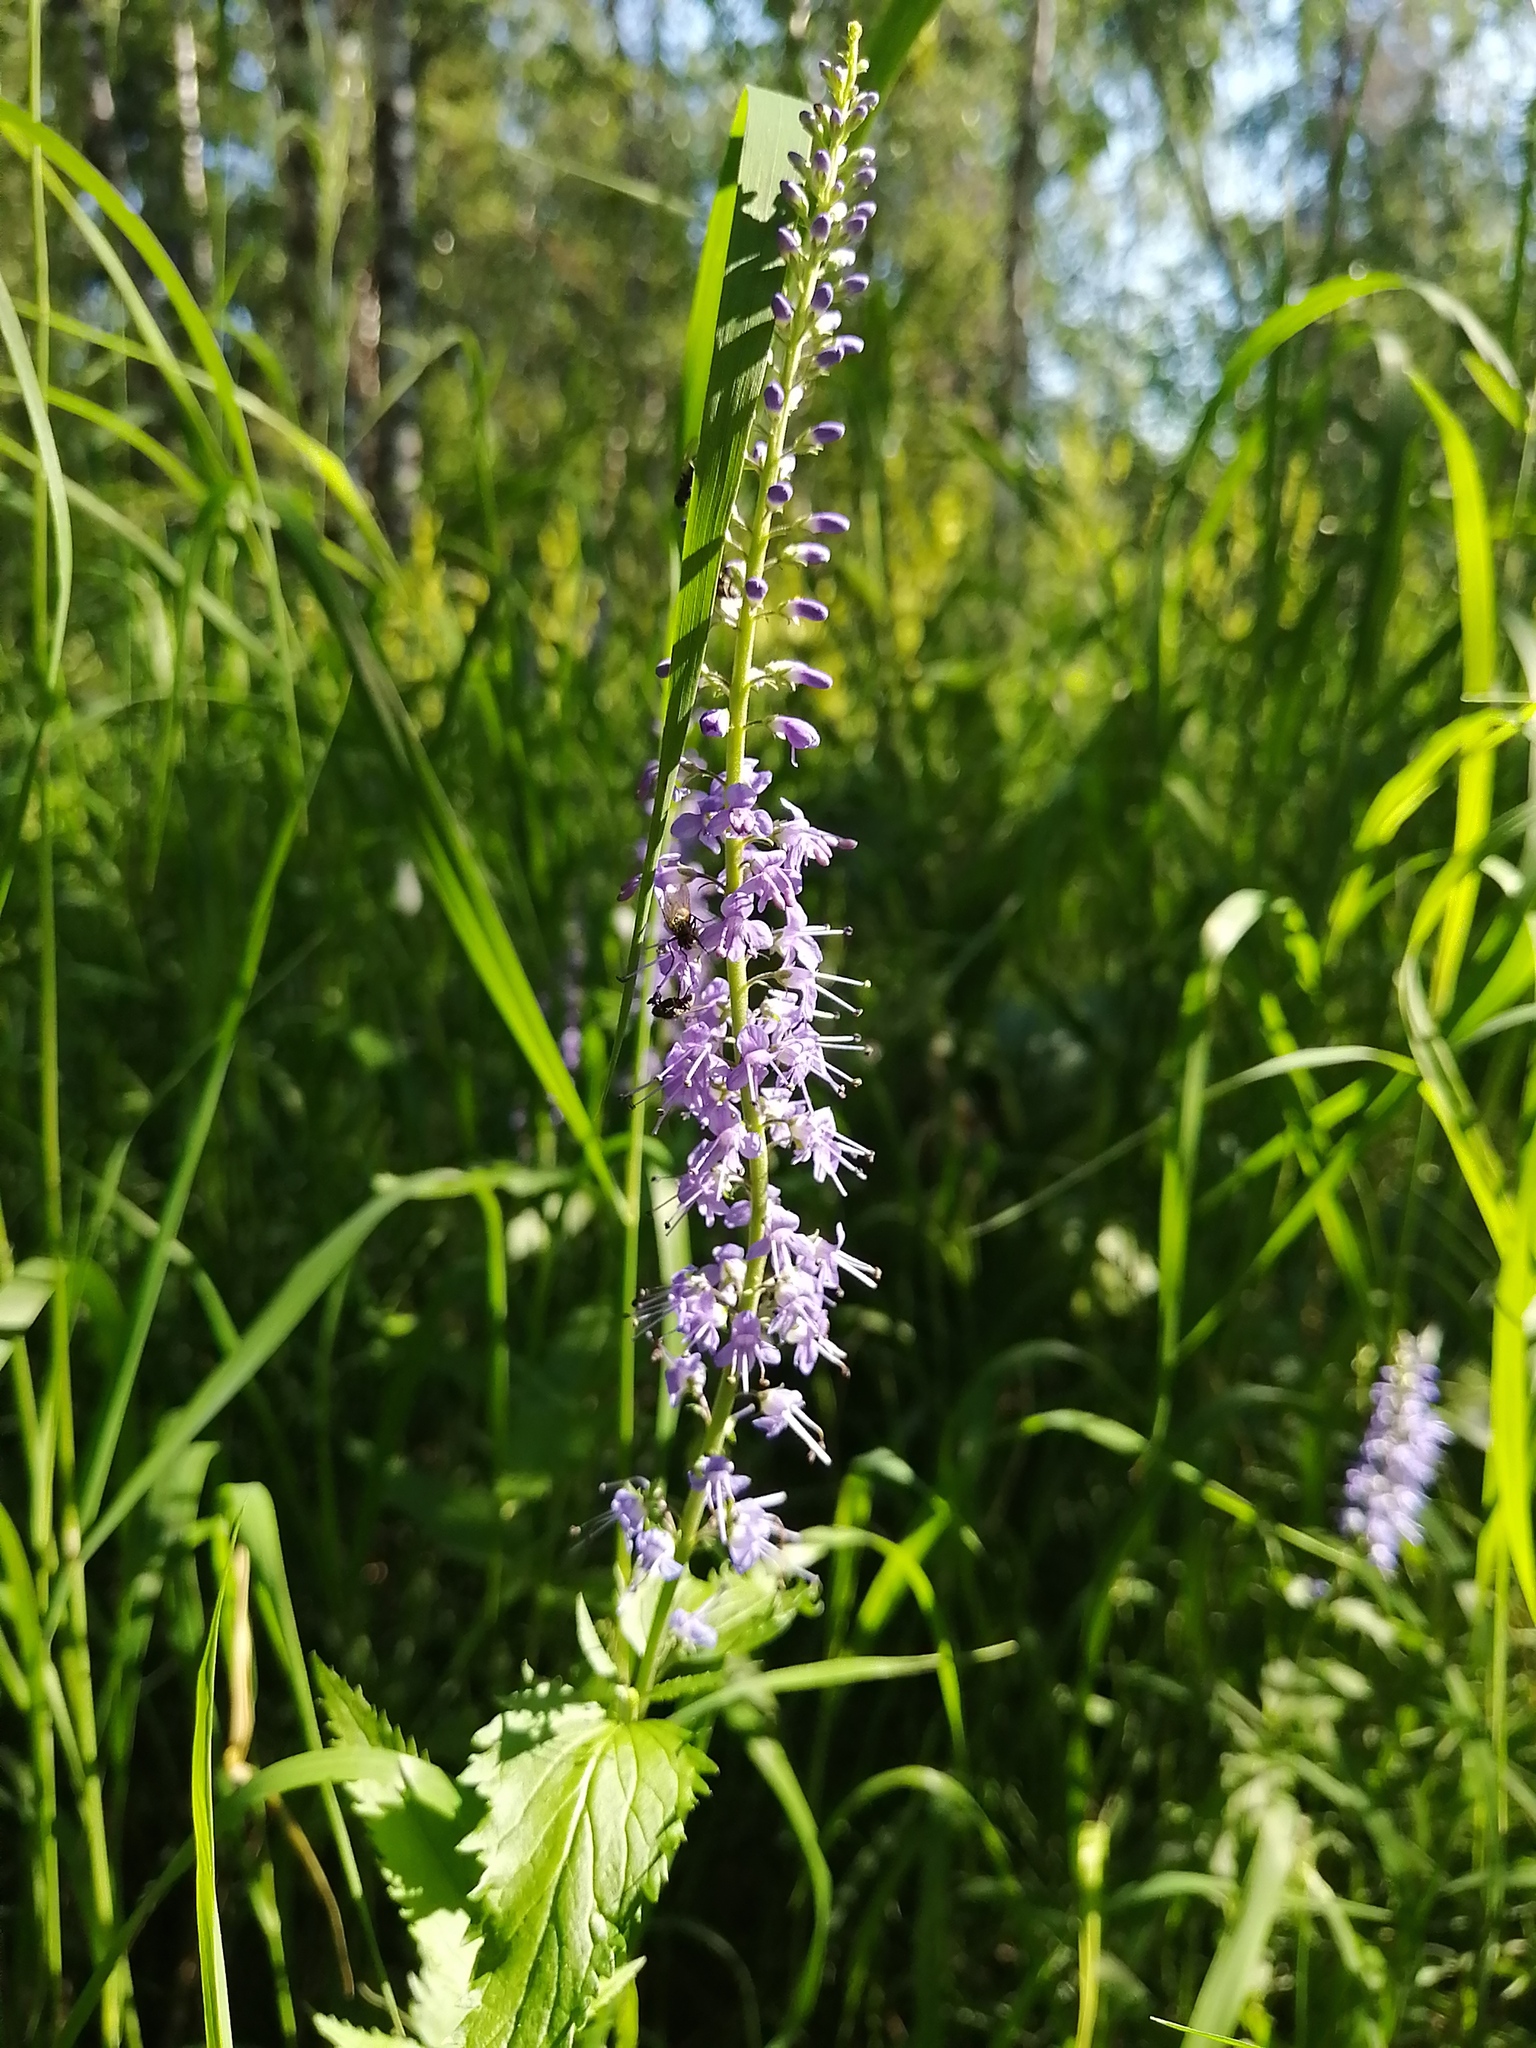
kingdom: Plantae
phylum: Tracheophyta
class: Magnoliopsida
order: Lamiales
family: Plantaginaceae
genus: Veronica
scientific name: Veronica longifolia
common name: Garden speedwell
